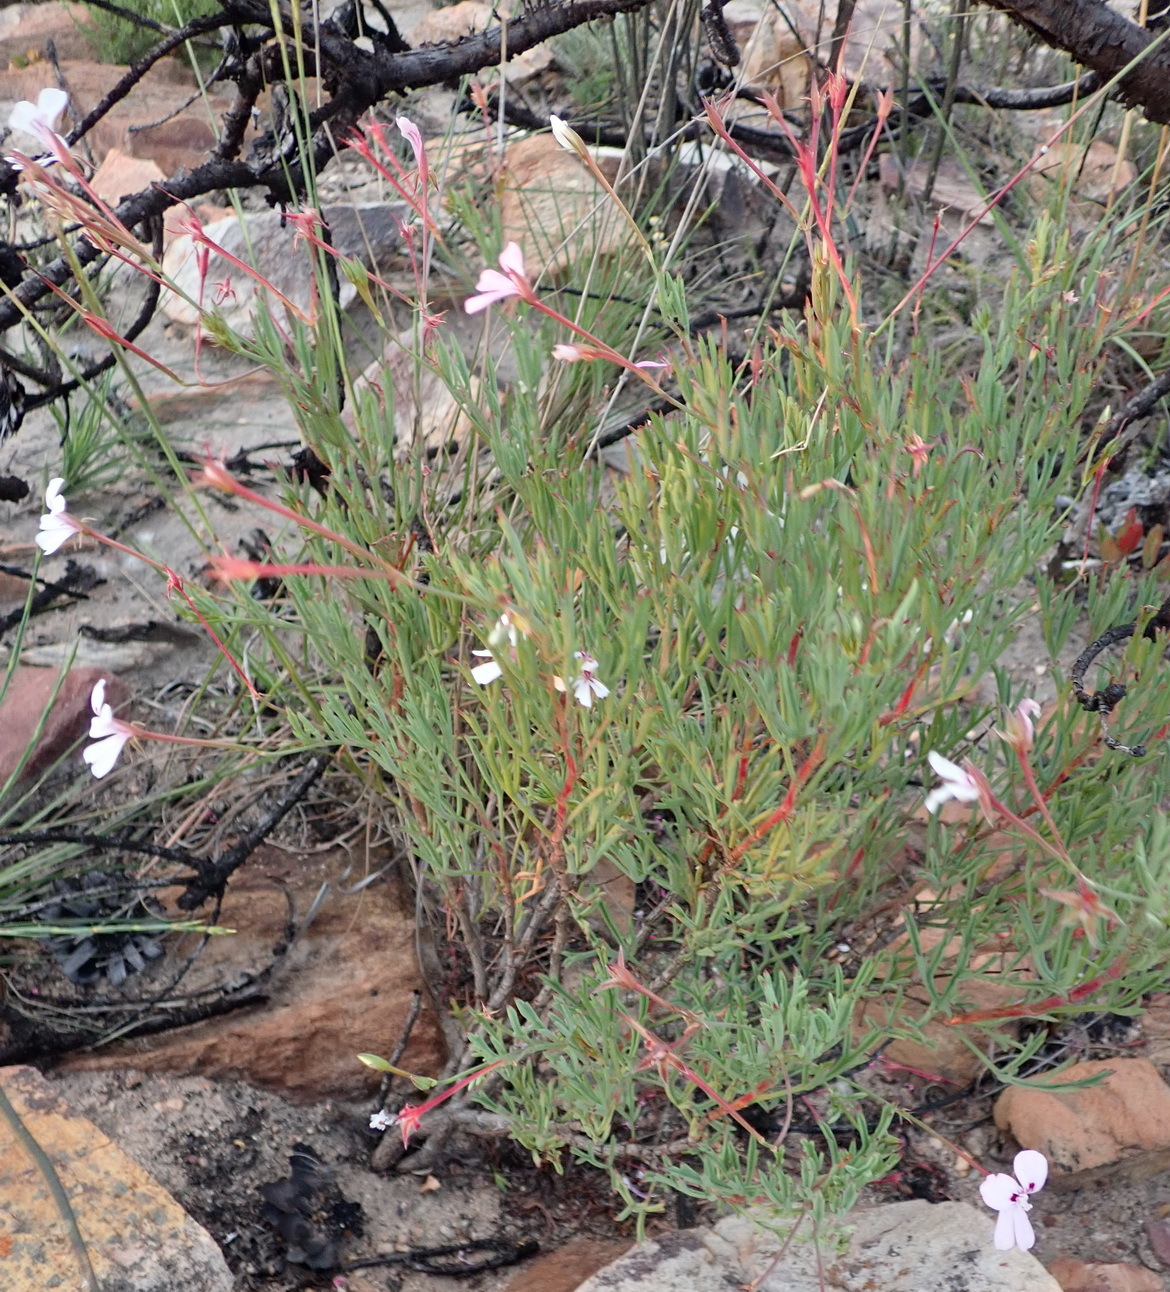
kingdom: Plantae
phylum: Tracheophyta
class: Magnoliopsida
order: Geraniales
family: Geraniaceae
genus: Pelargonium
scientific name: Pelargonium laevigatum
